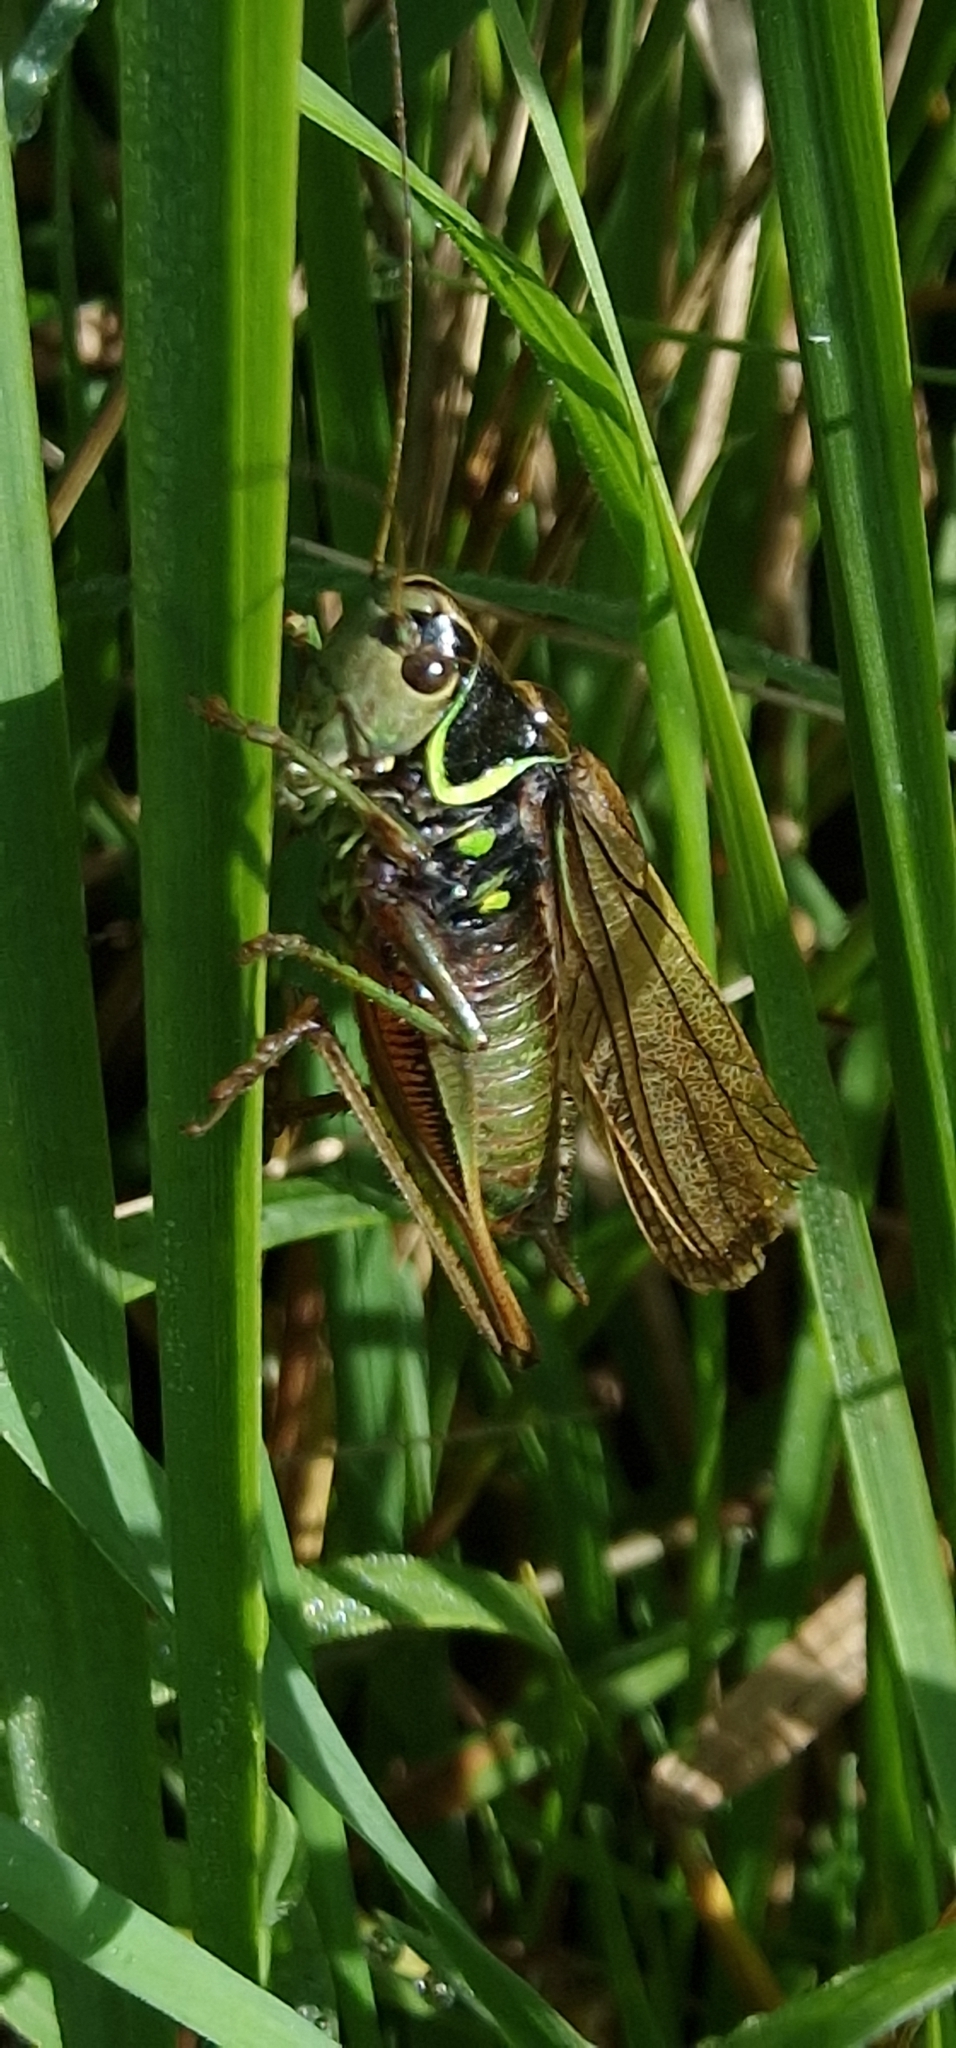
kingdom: Animalia
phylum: Arthropoda
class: Insecta
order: Orthoptera
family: Tettigoniidae
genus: Roeseliana
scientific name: Roeseliana roeselii
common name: Roesel's bush cricket
